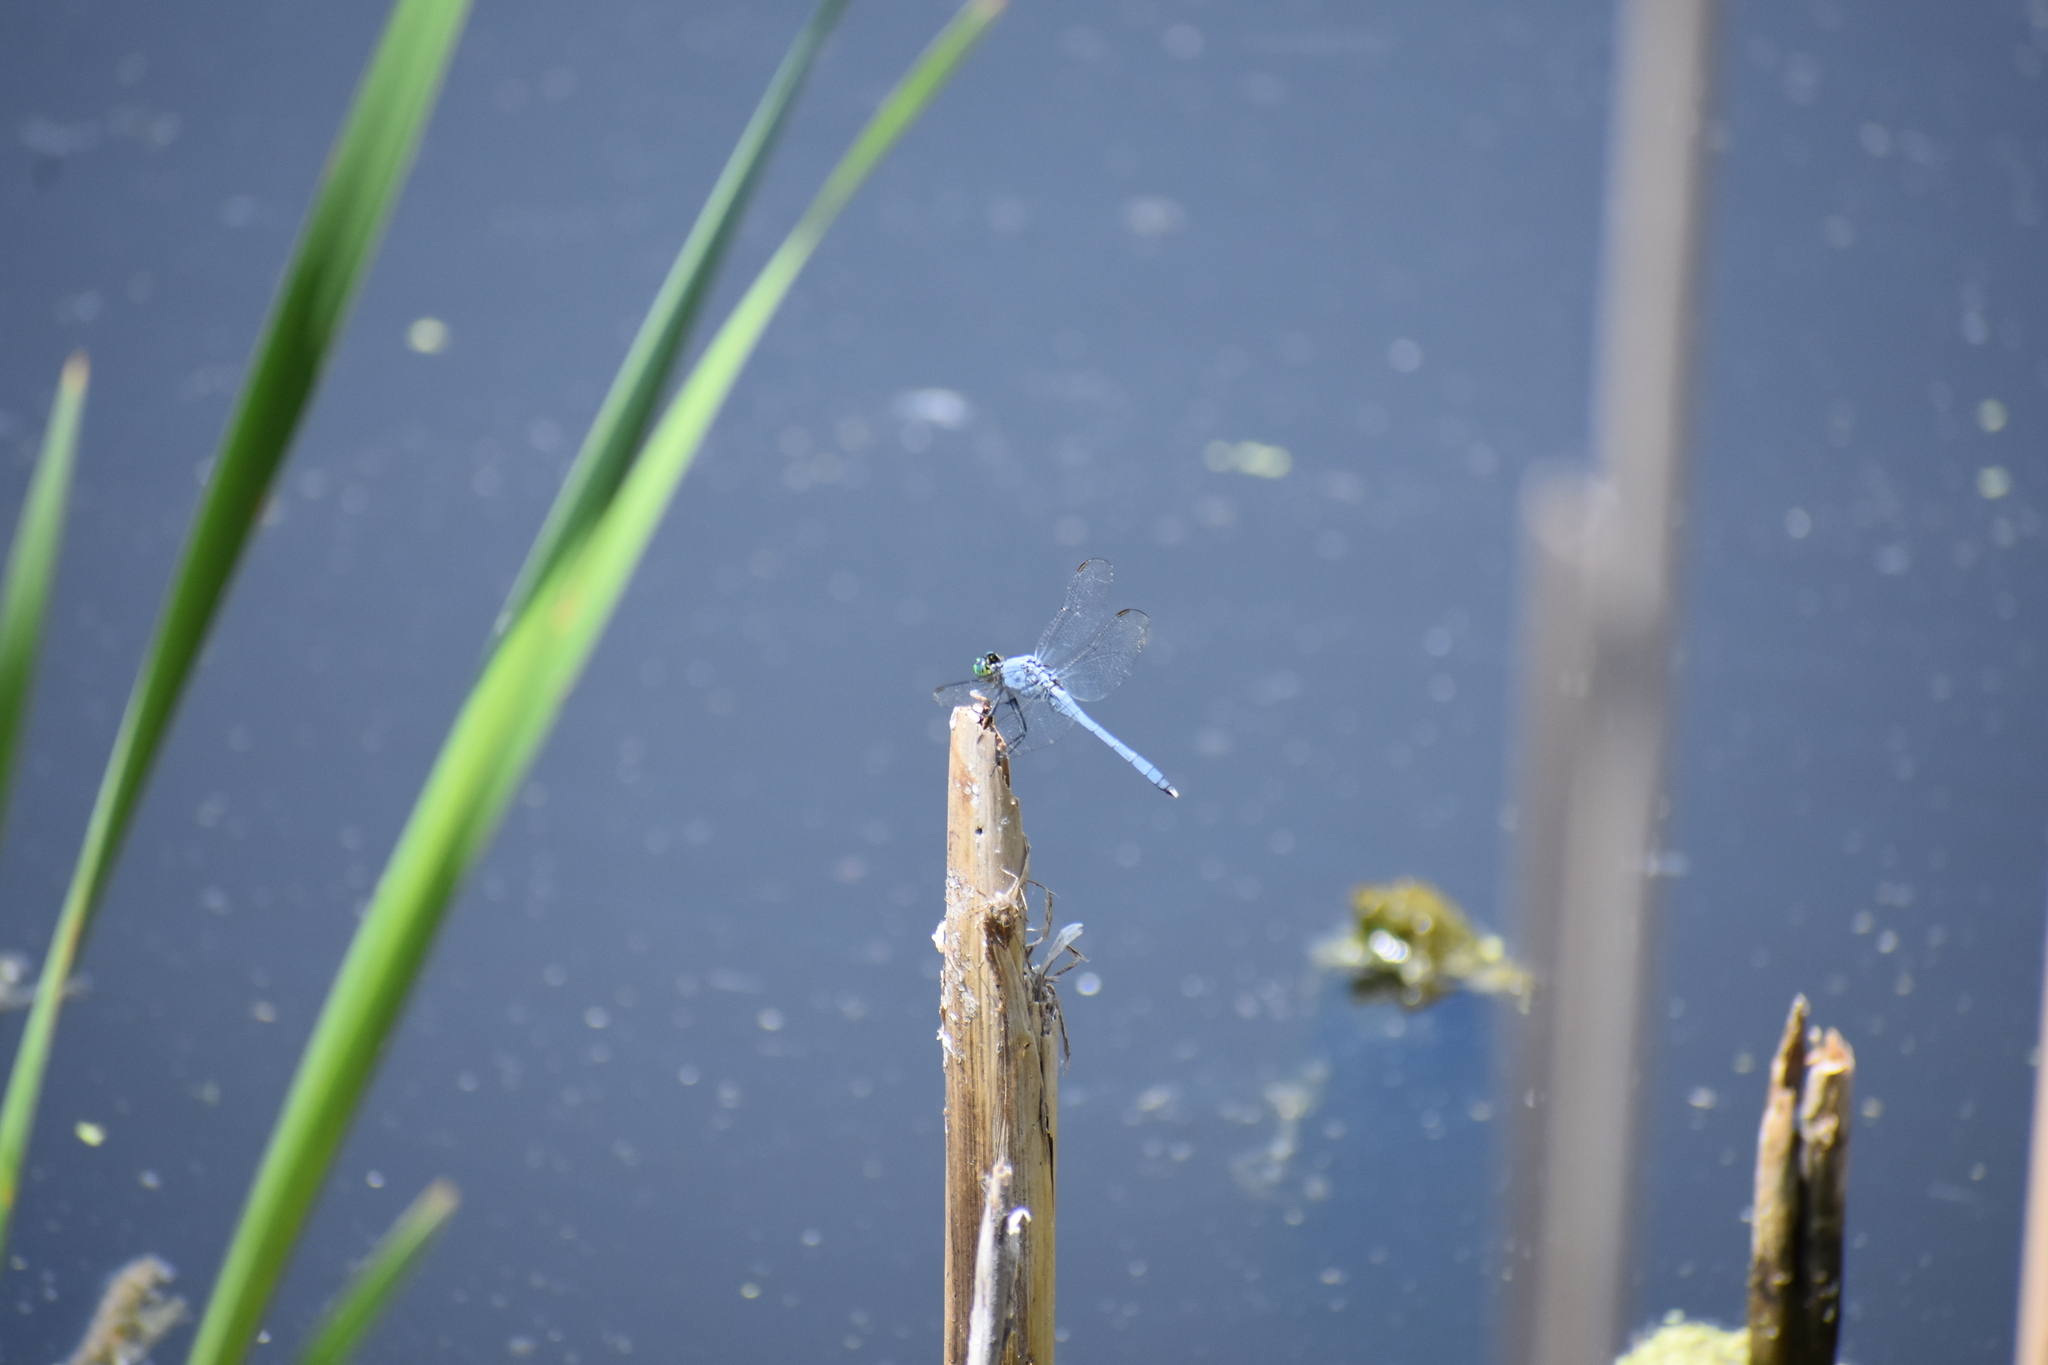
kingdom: Animalia
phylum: Arthropoda
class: Insecta
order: Odonata
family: Libellulidae
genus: Erythemis
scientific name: Erythemis simplicicollis
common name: Eastern pondhawk
